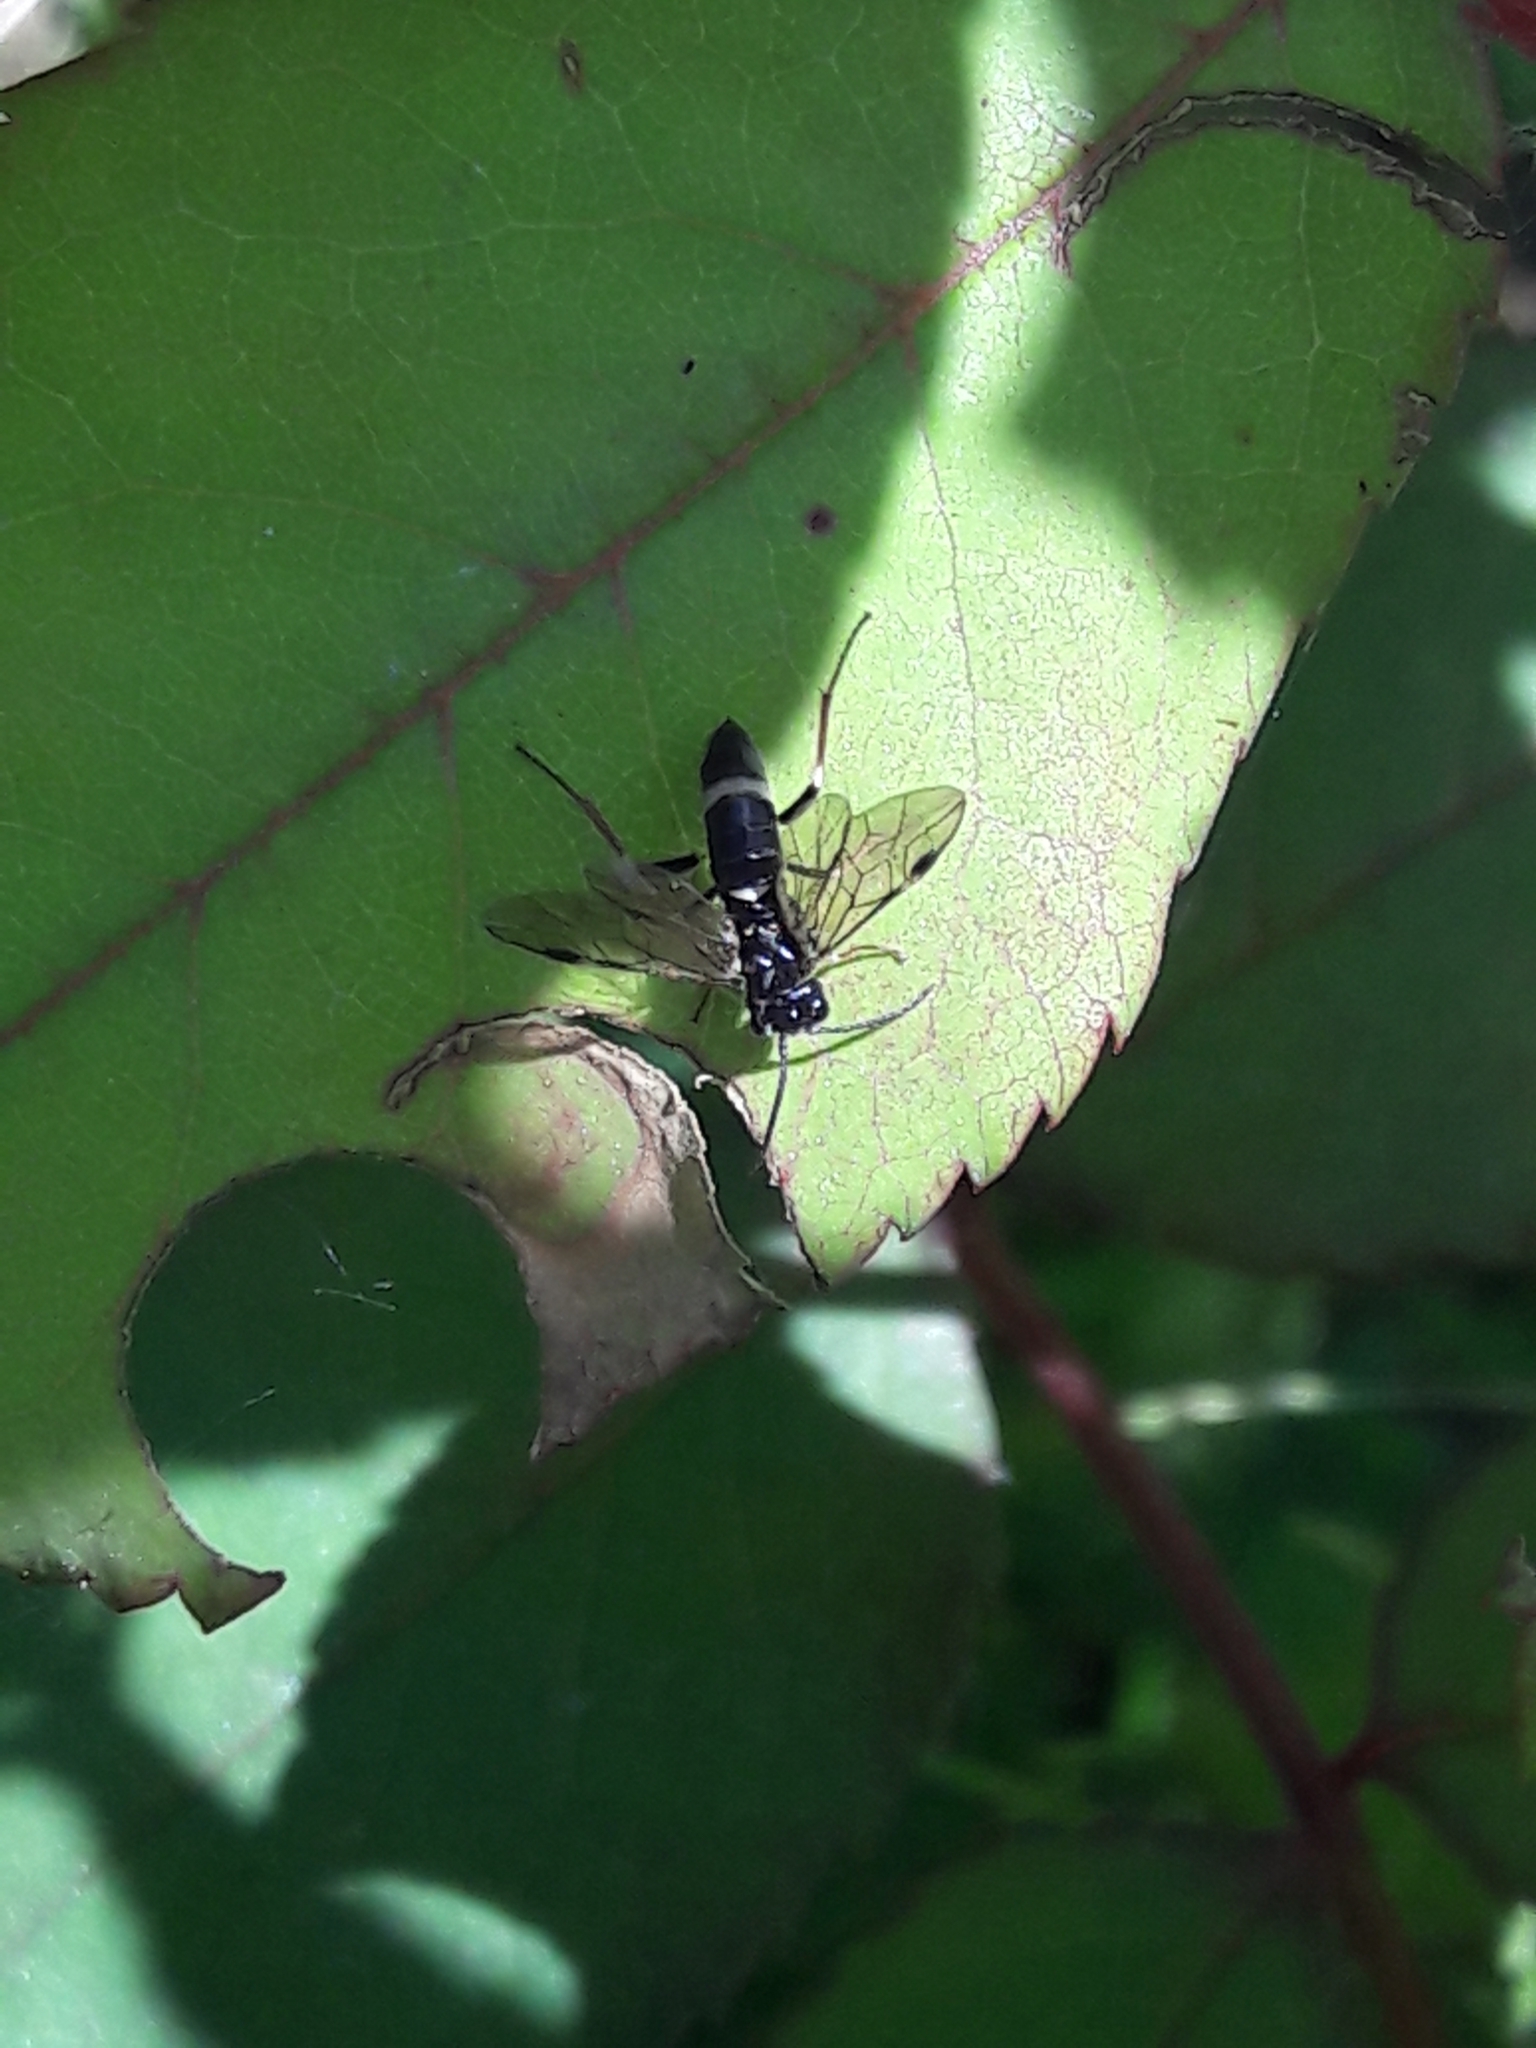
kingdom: Animalia
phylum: Arthropoda
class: Insecta
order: Hymenoptera
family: Tenthredinidae
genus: Allantus
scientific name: Allantus basalis
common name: Common sawfly
